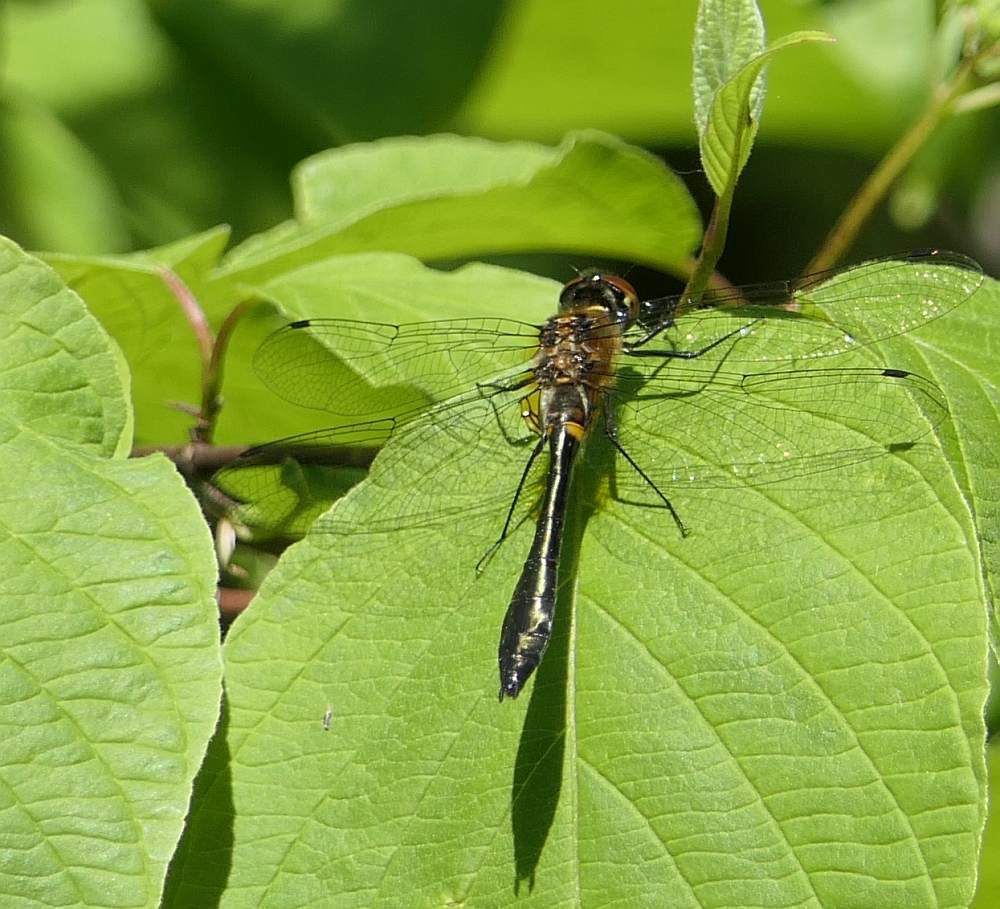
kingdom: Animalia
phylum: Arthropoda
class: Insecta
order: Odonata
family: Corduliidae
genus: Dorocordulia
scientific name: Dorocordulia libera
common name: Racket-tailed emerald
